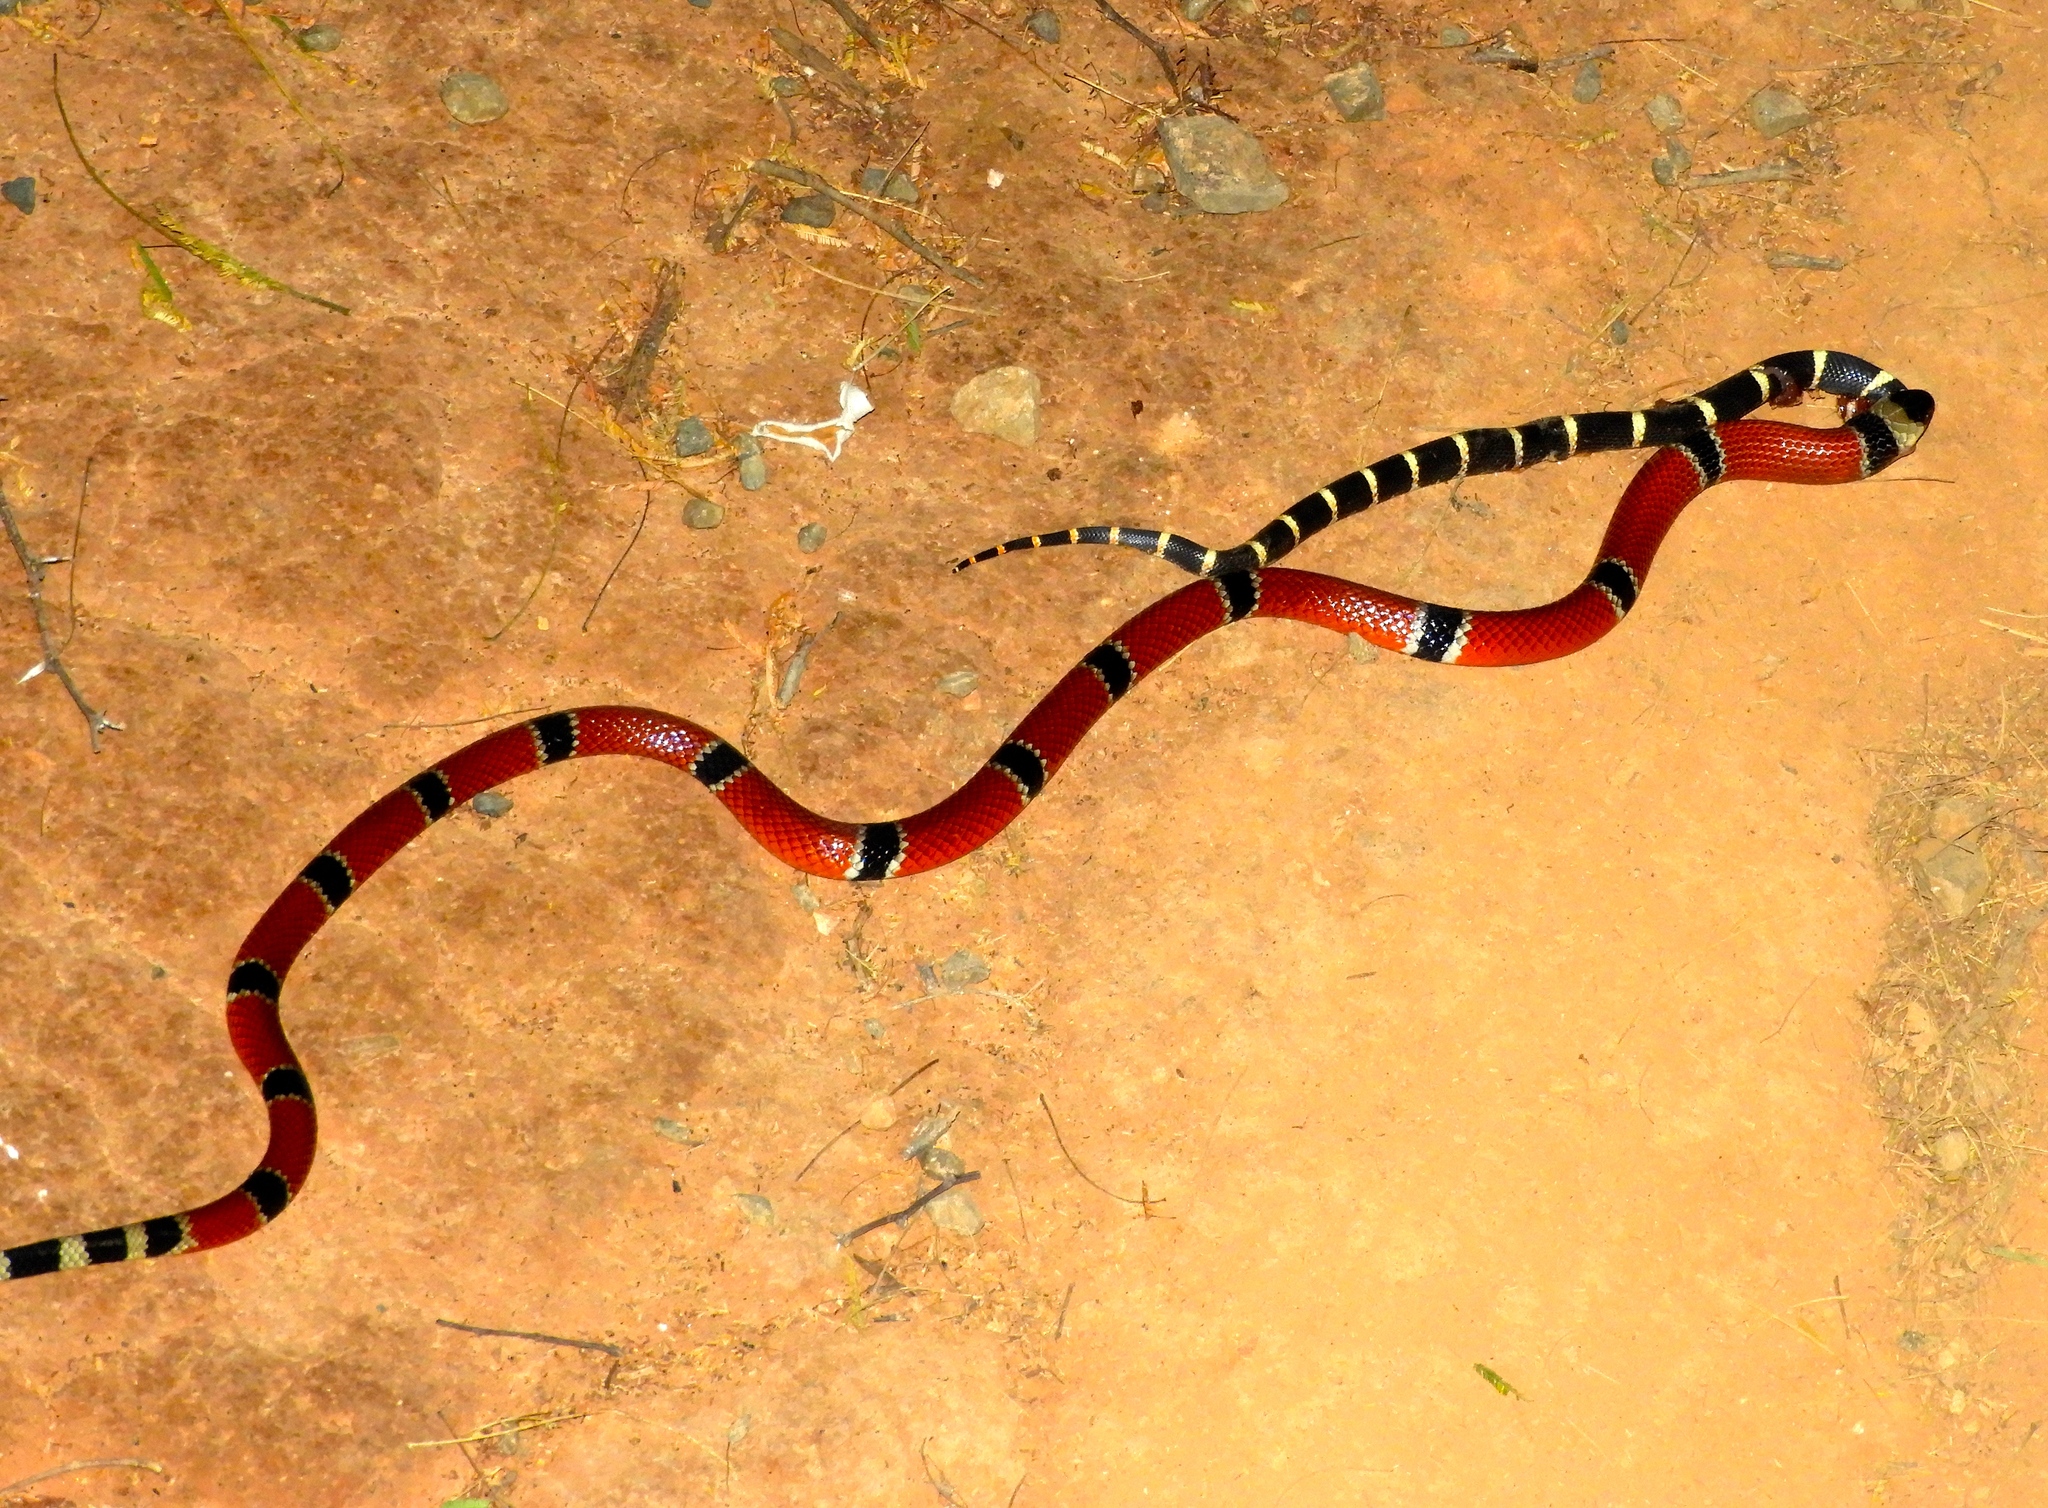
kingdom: Animalia
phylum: Chordata
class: Squamata
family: Elapidae
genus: Micrurus
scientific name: Micrurus distans
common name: Clear-banded coral snake
